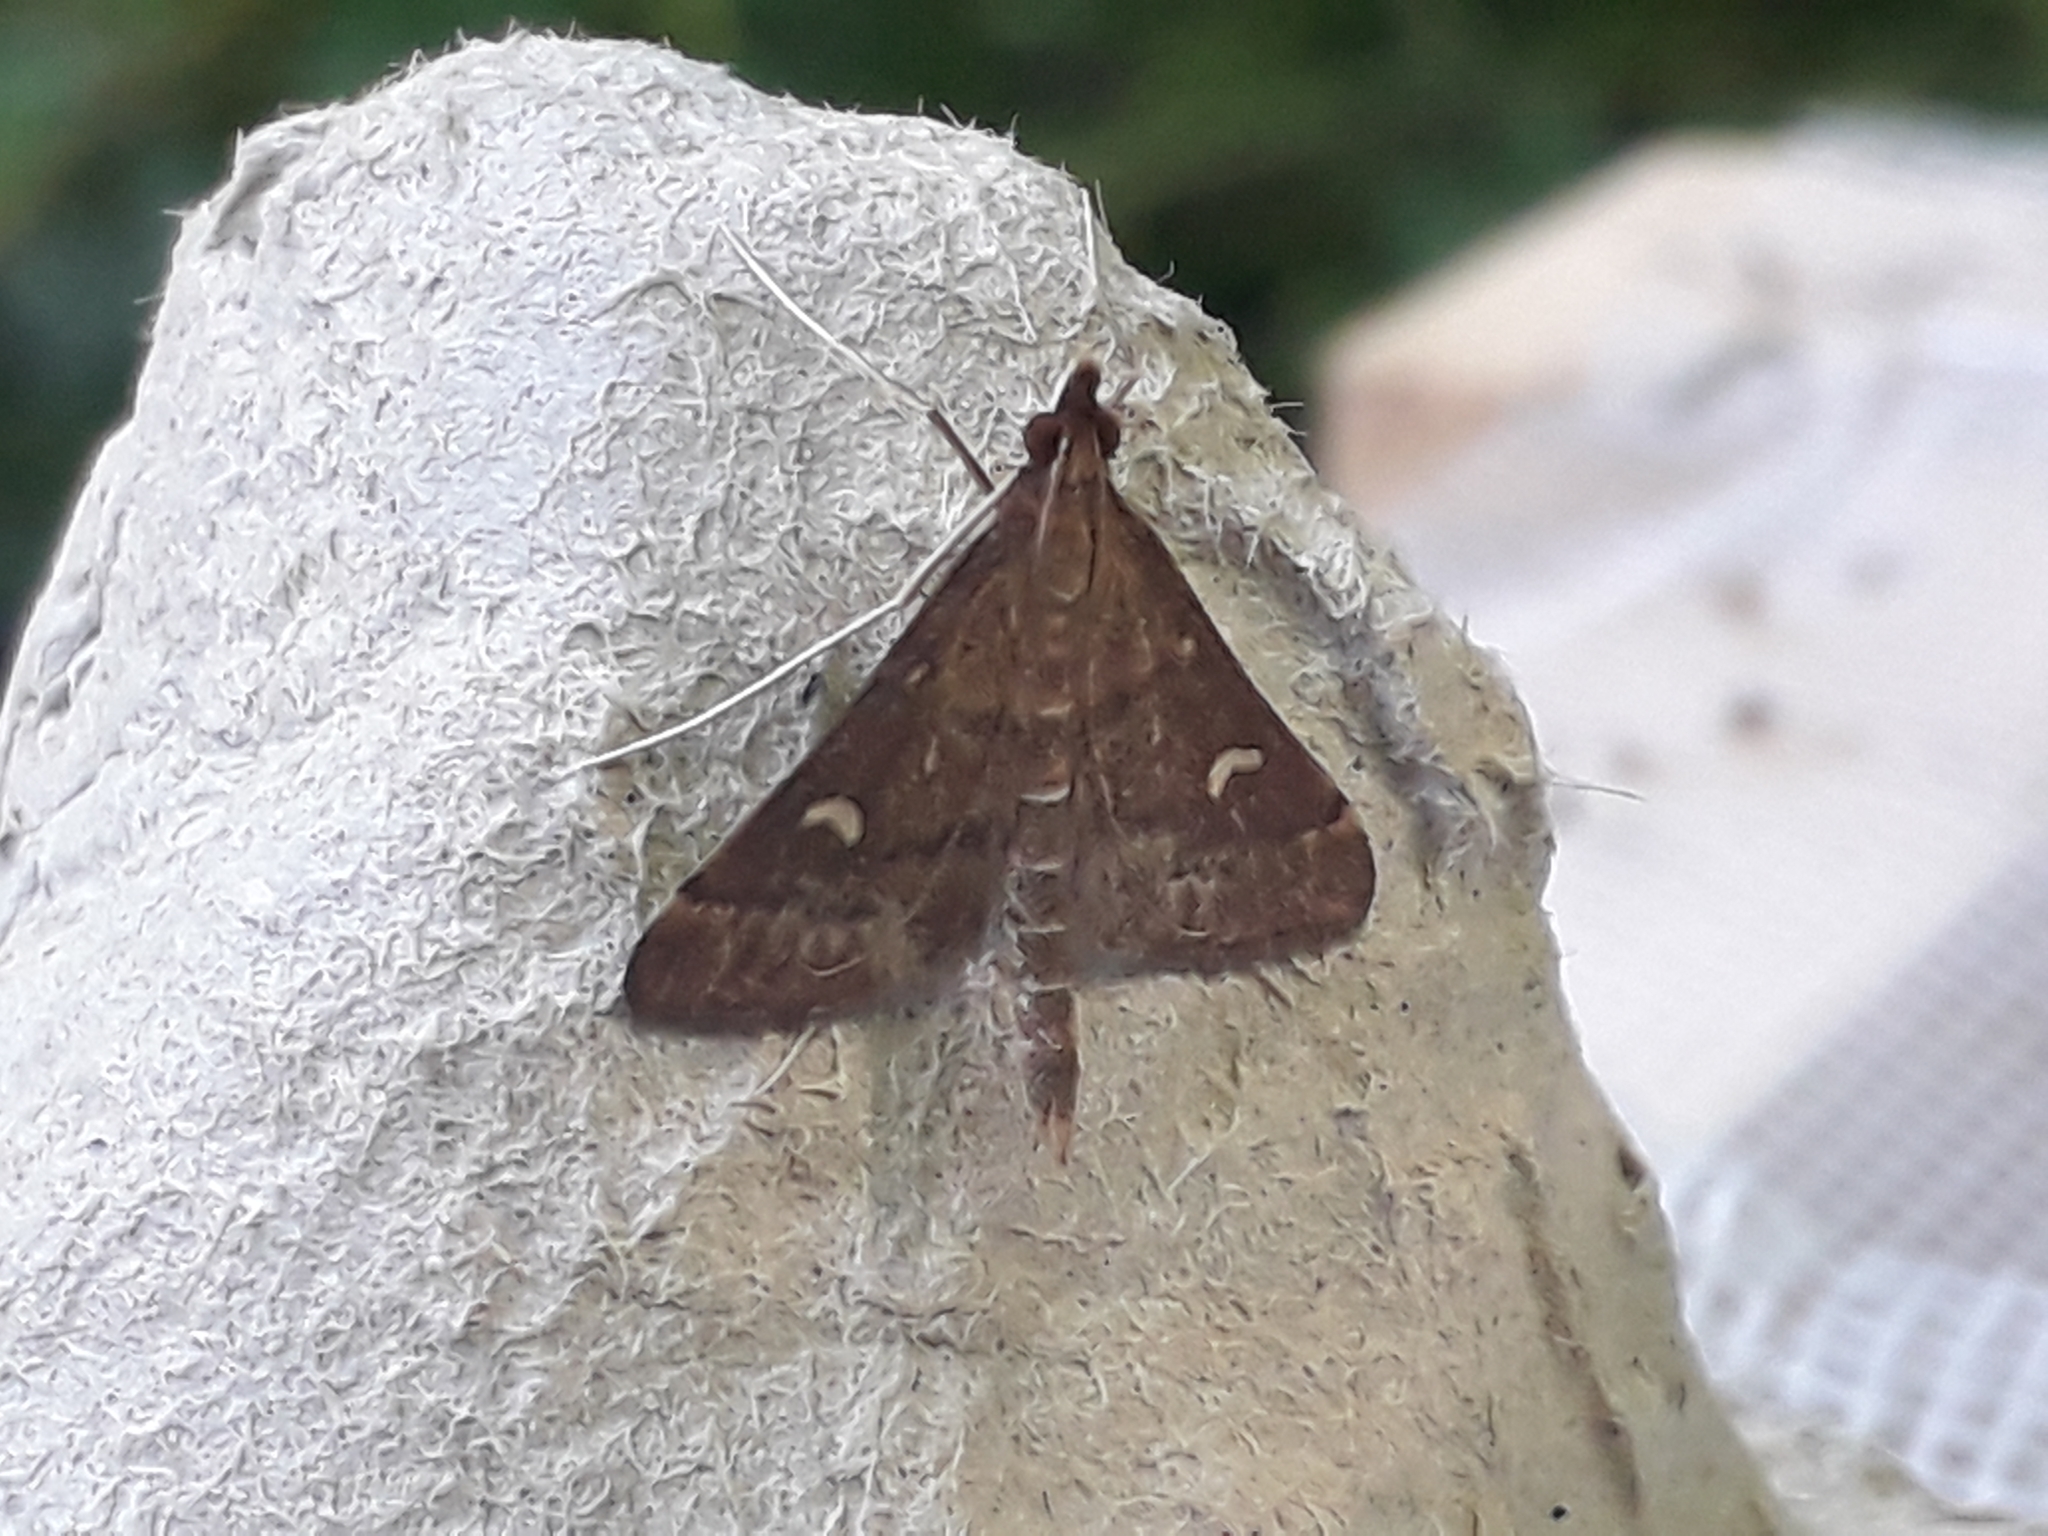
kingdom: Animalia
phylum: Arthropoda
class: Insecta
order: Lepidoptera
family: Crambidae
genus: Stenia
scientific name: Stenia Dolicharthria punctalis
